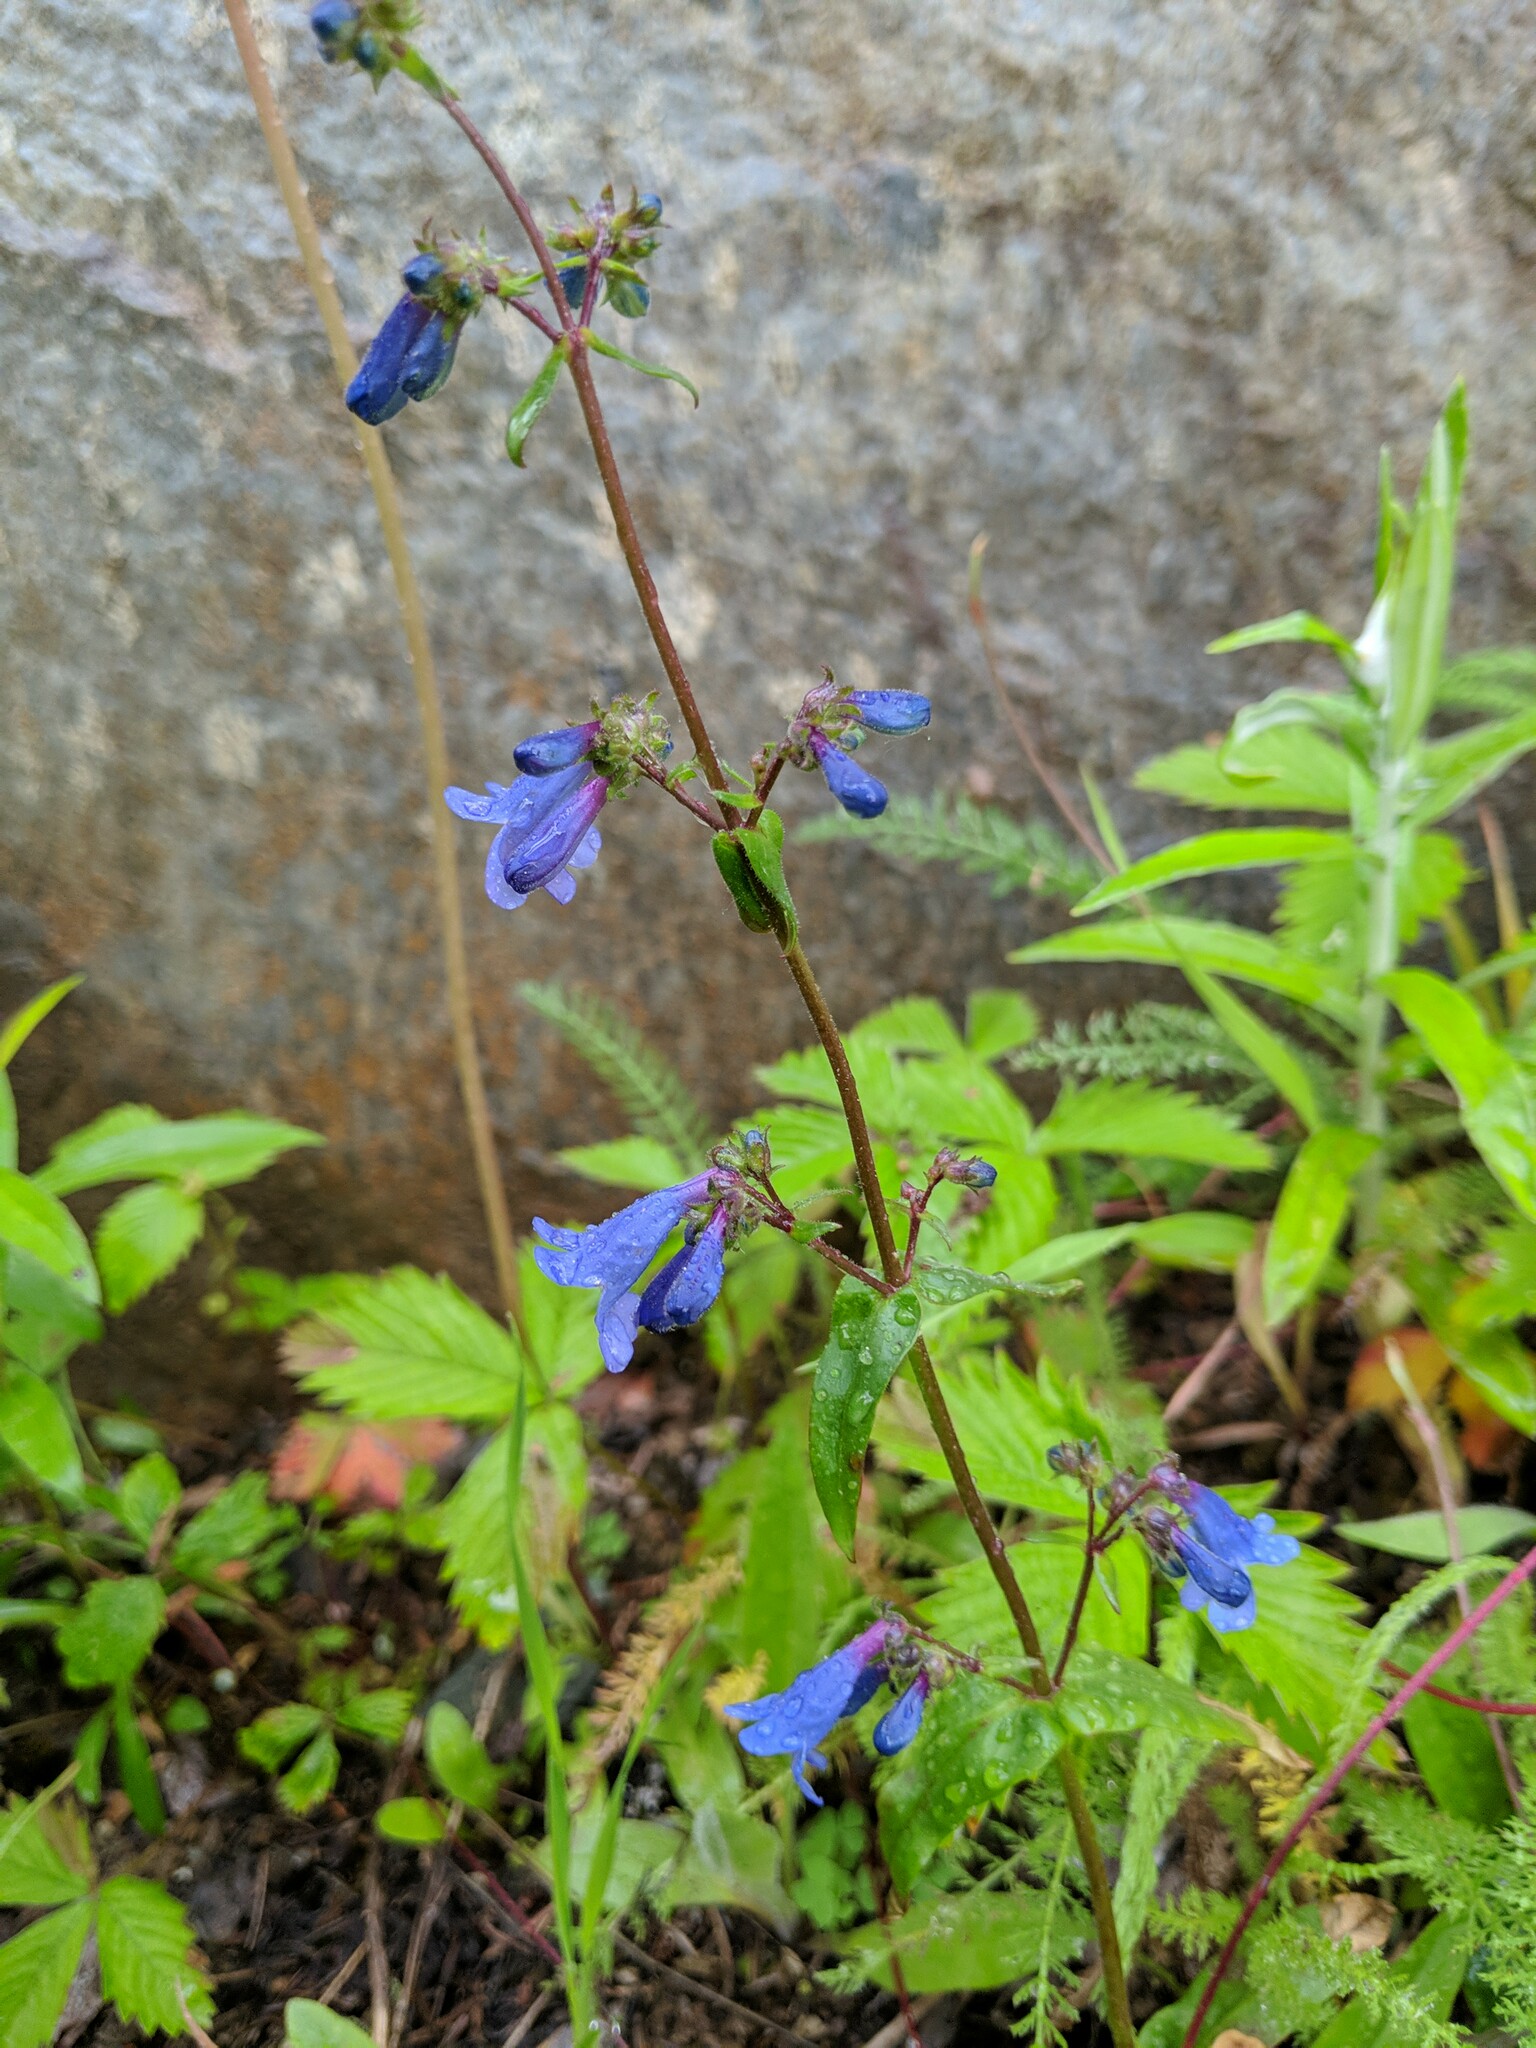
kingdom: Plantae
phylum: Tracheophyta
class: Magnoliopsida
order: Lamiales
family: Plantaginaceae
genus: Penstemon
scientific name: Penstemon albertinus
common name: Alberta beardtongue
